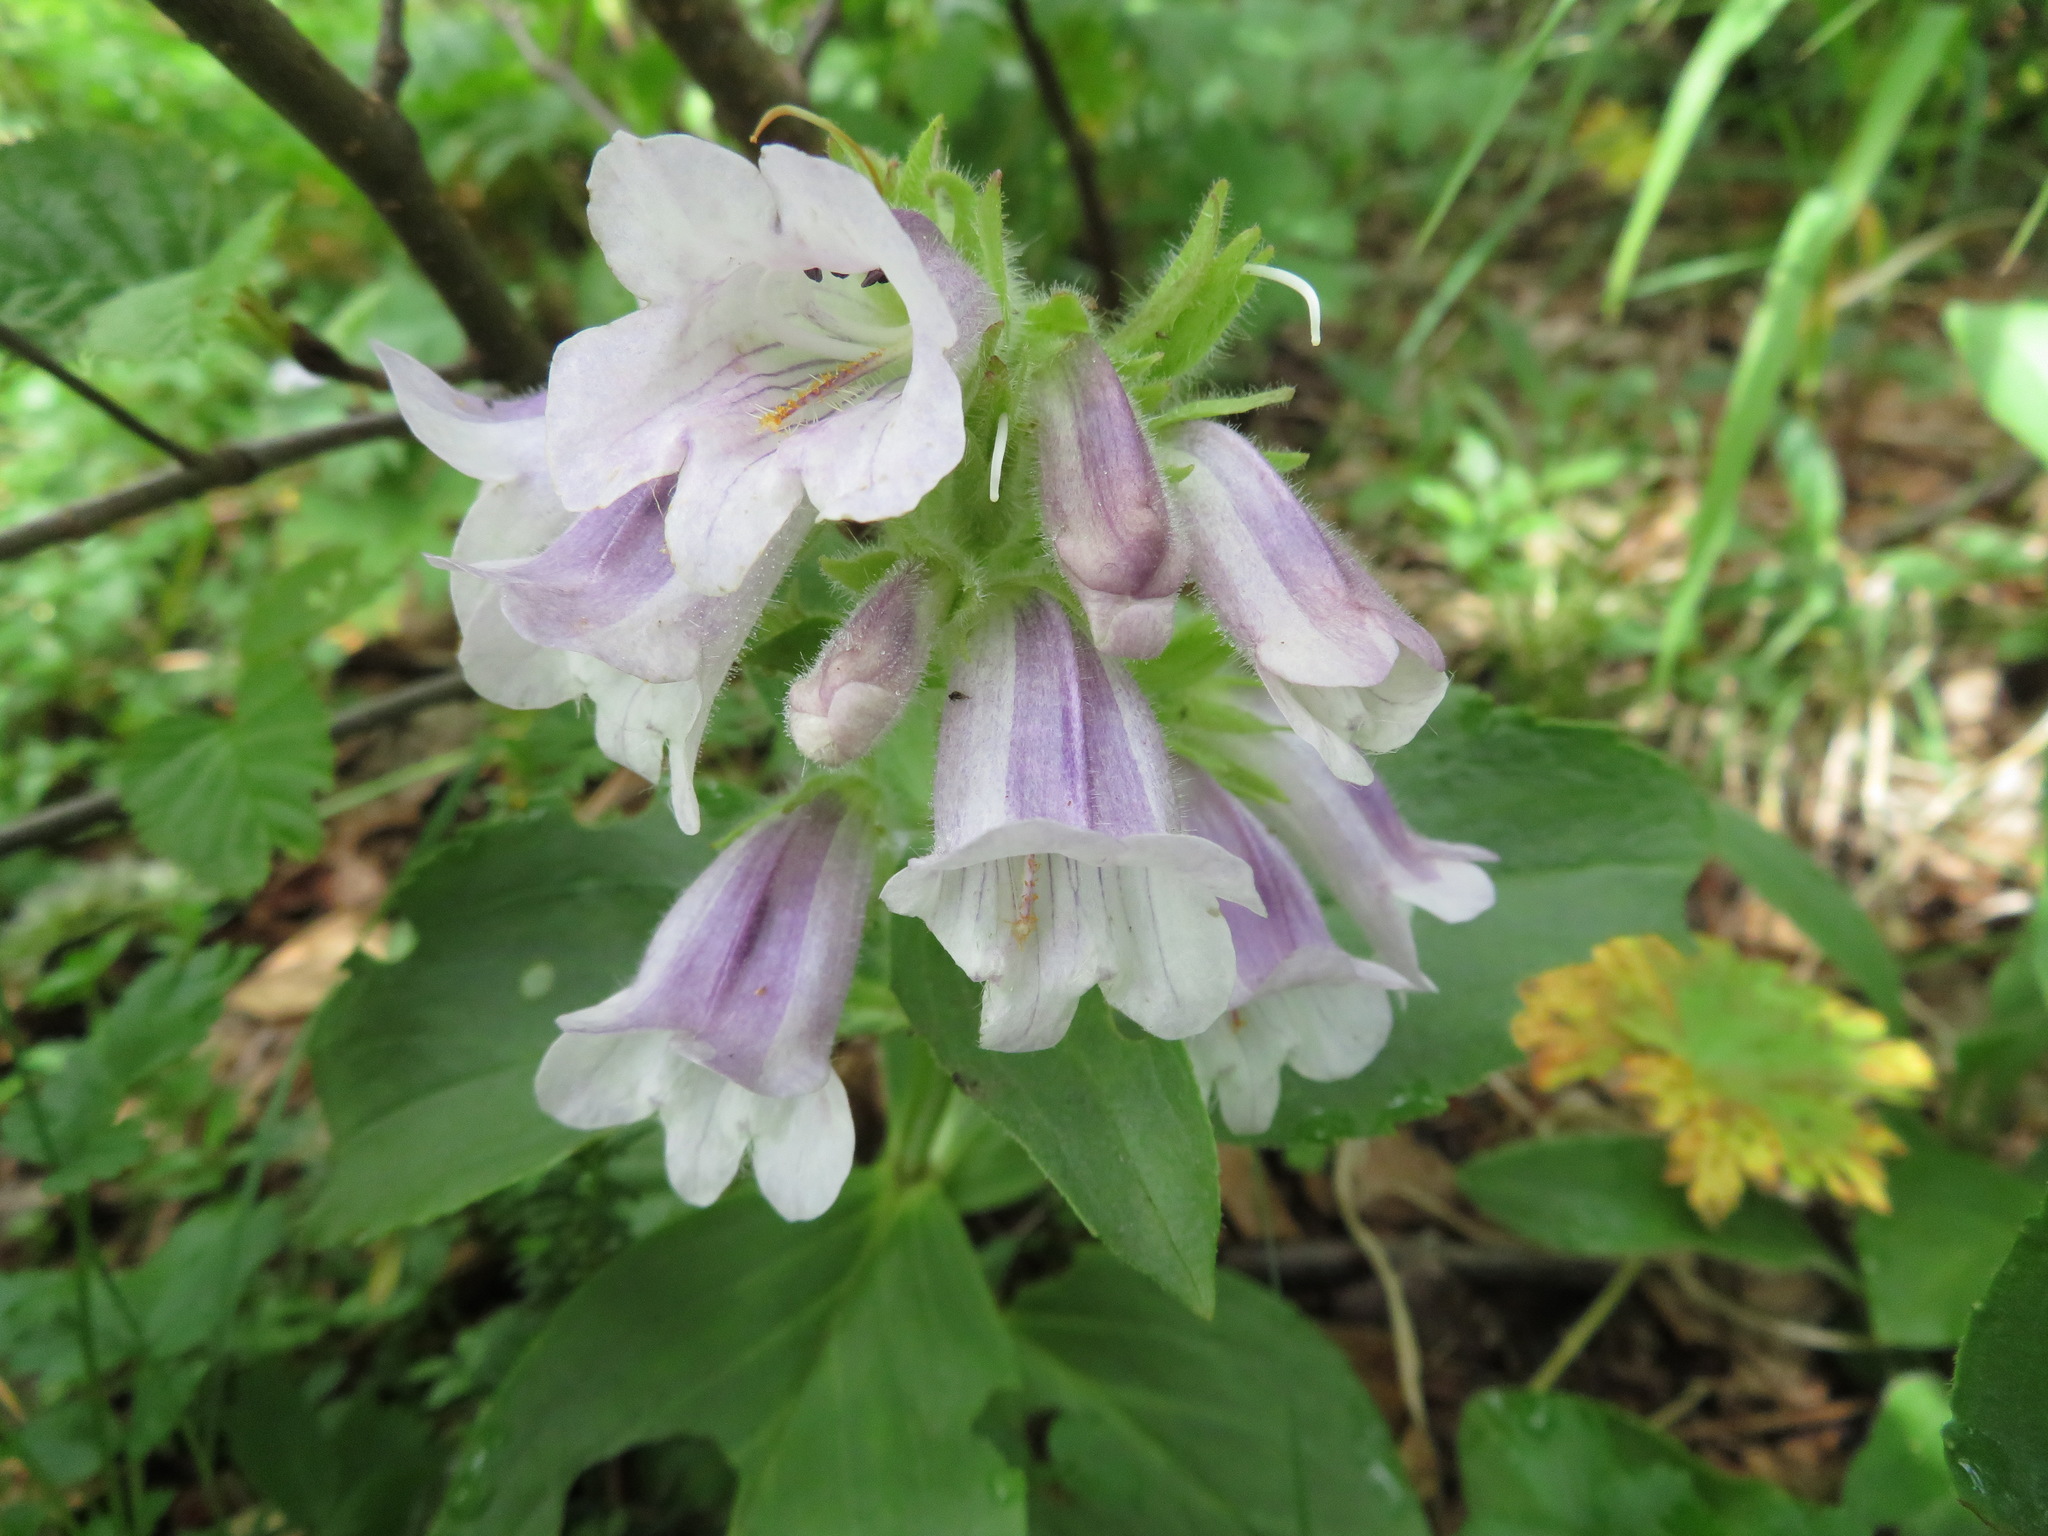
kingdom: Plantae
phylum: Tracheophyta
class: Magnoliopsida
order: Lamiales
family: Plantaginaceae
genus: Pennellianthus
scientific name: Pennellianthus frutescens
